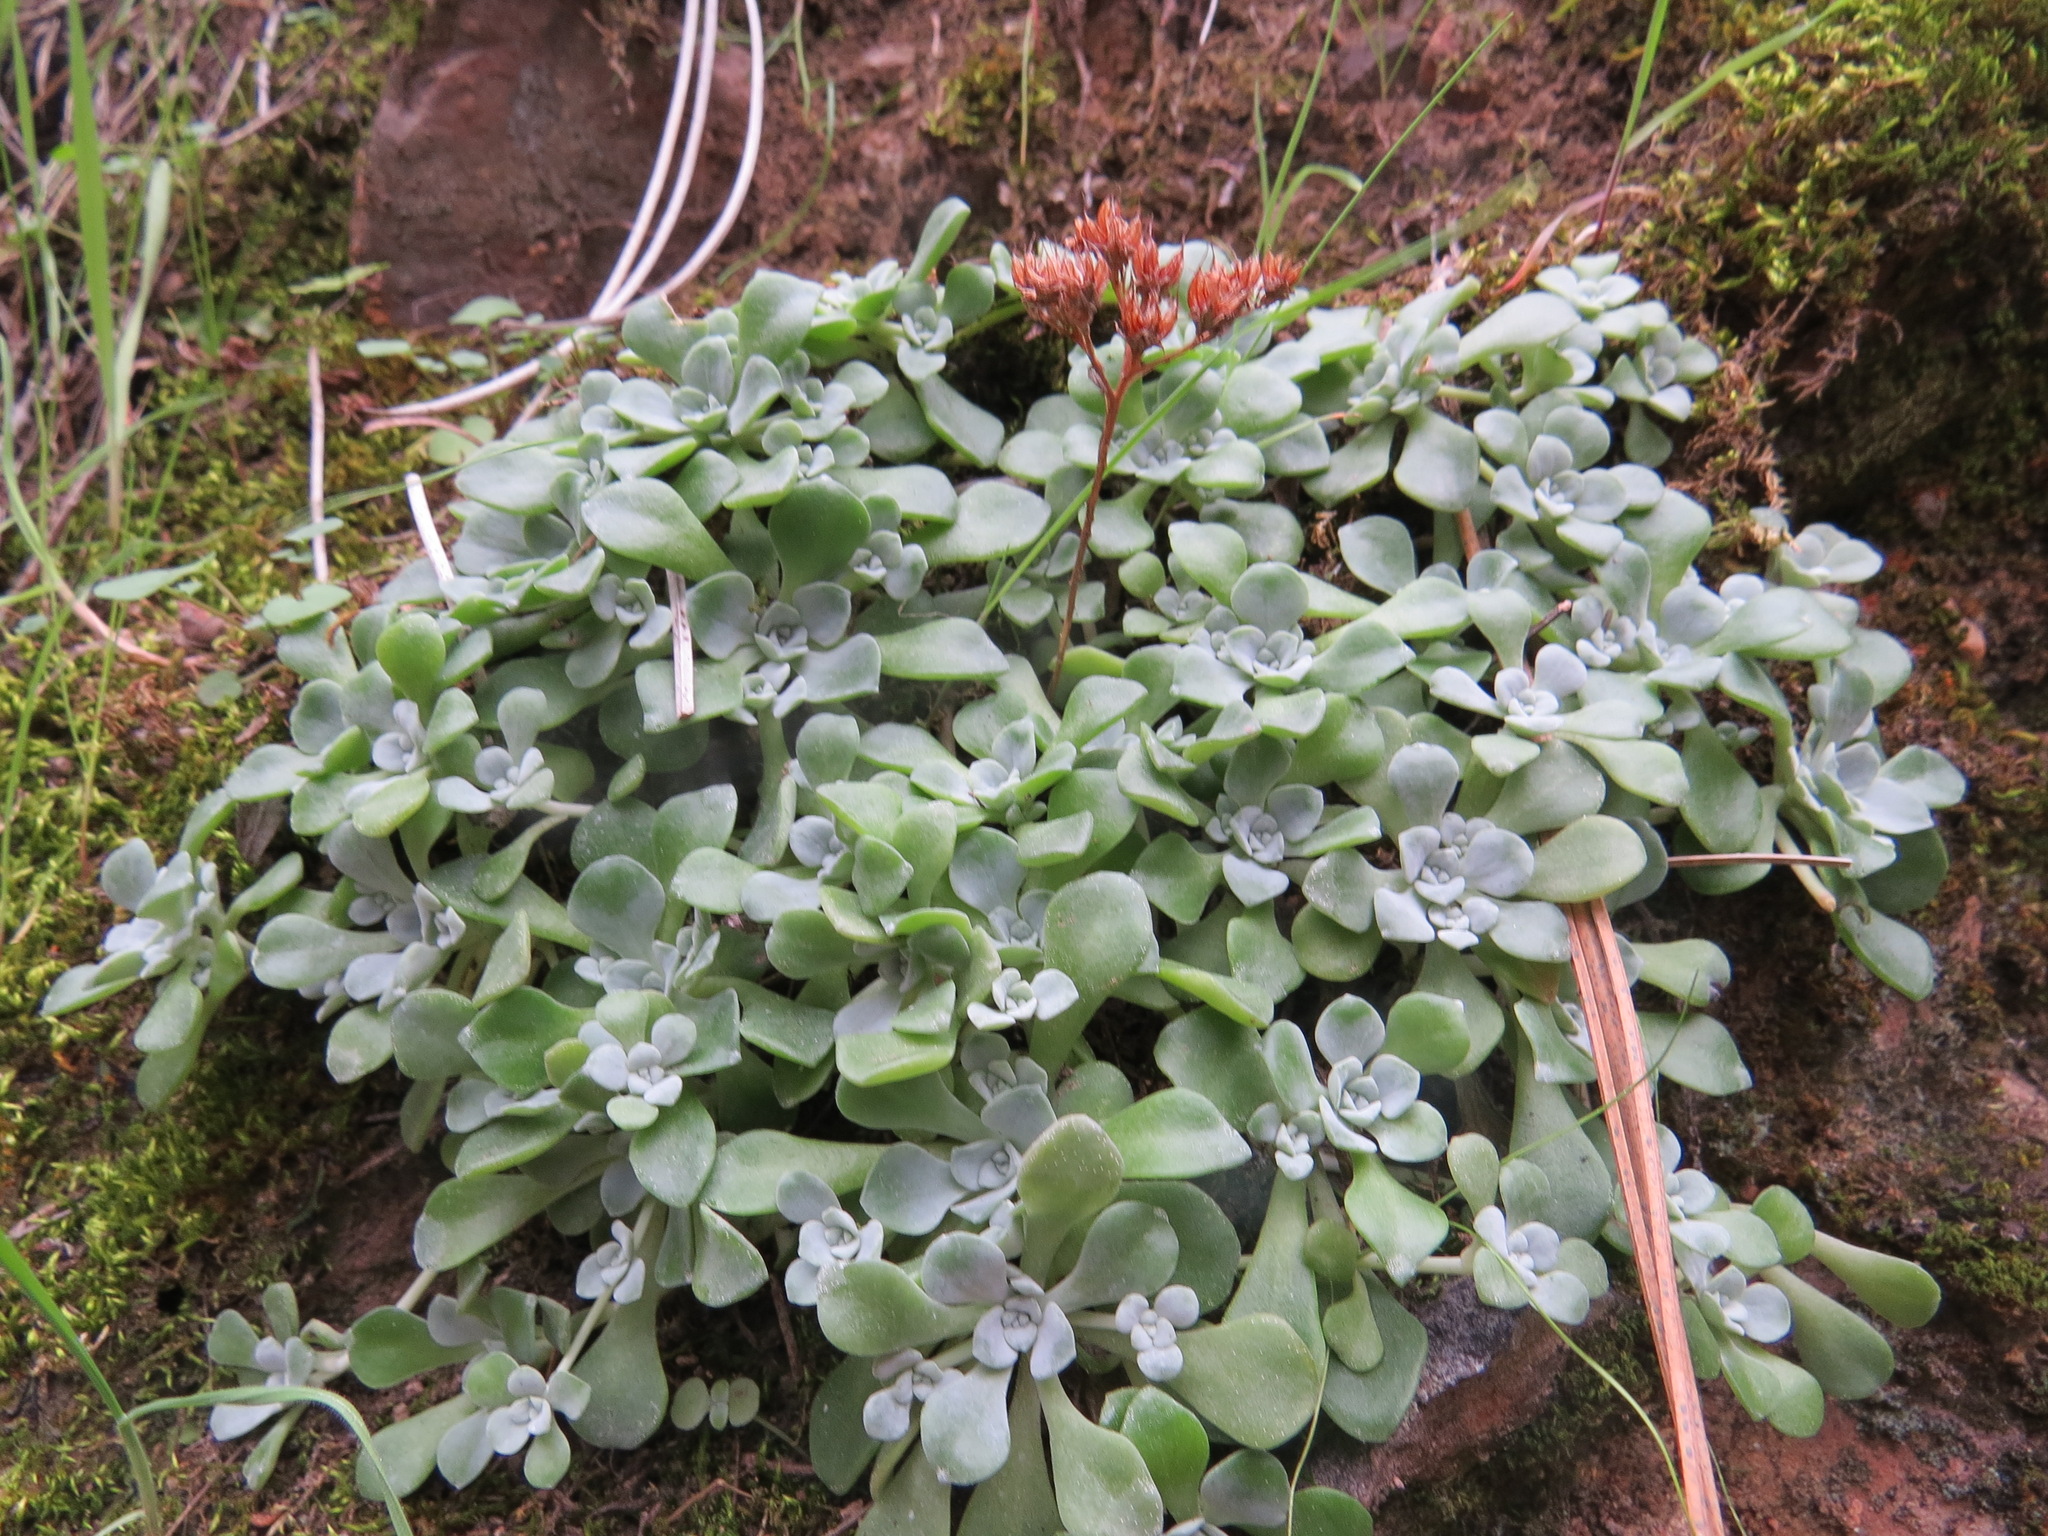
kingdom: Plantae
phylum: Tracheophyta
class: Magnoliopsida
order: Saxifragales
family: Crassulaceae
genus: Sedum
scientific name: Sedum spathulifolium
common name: Colorado stonecrop
